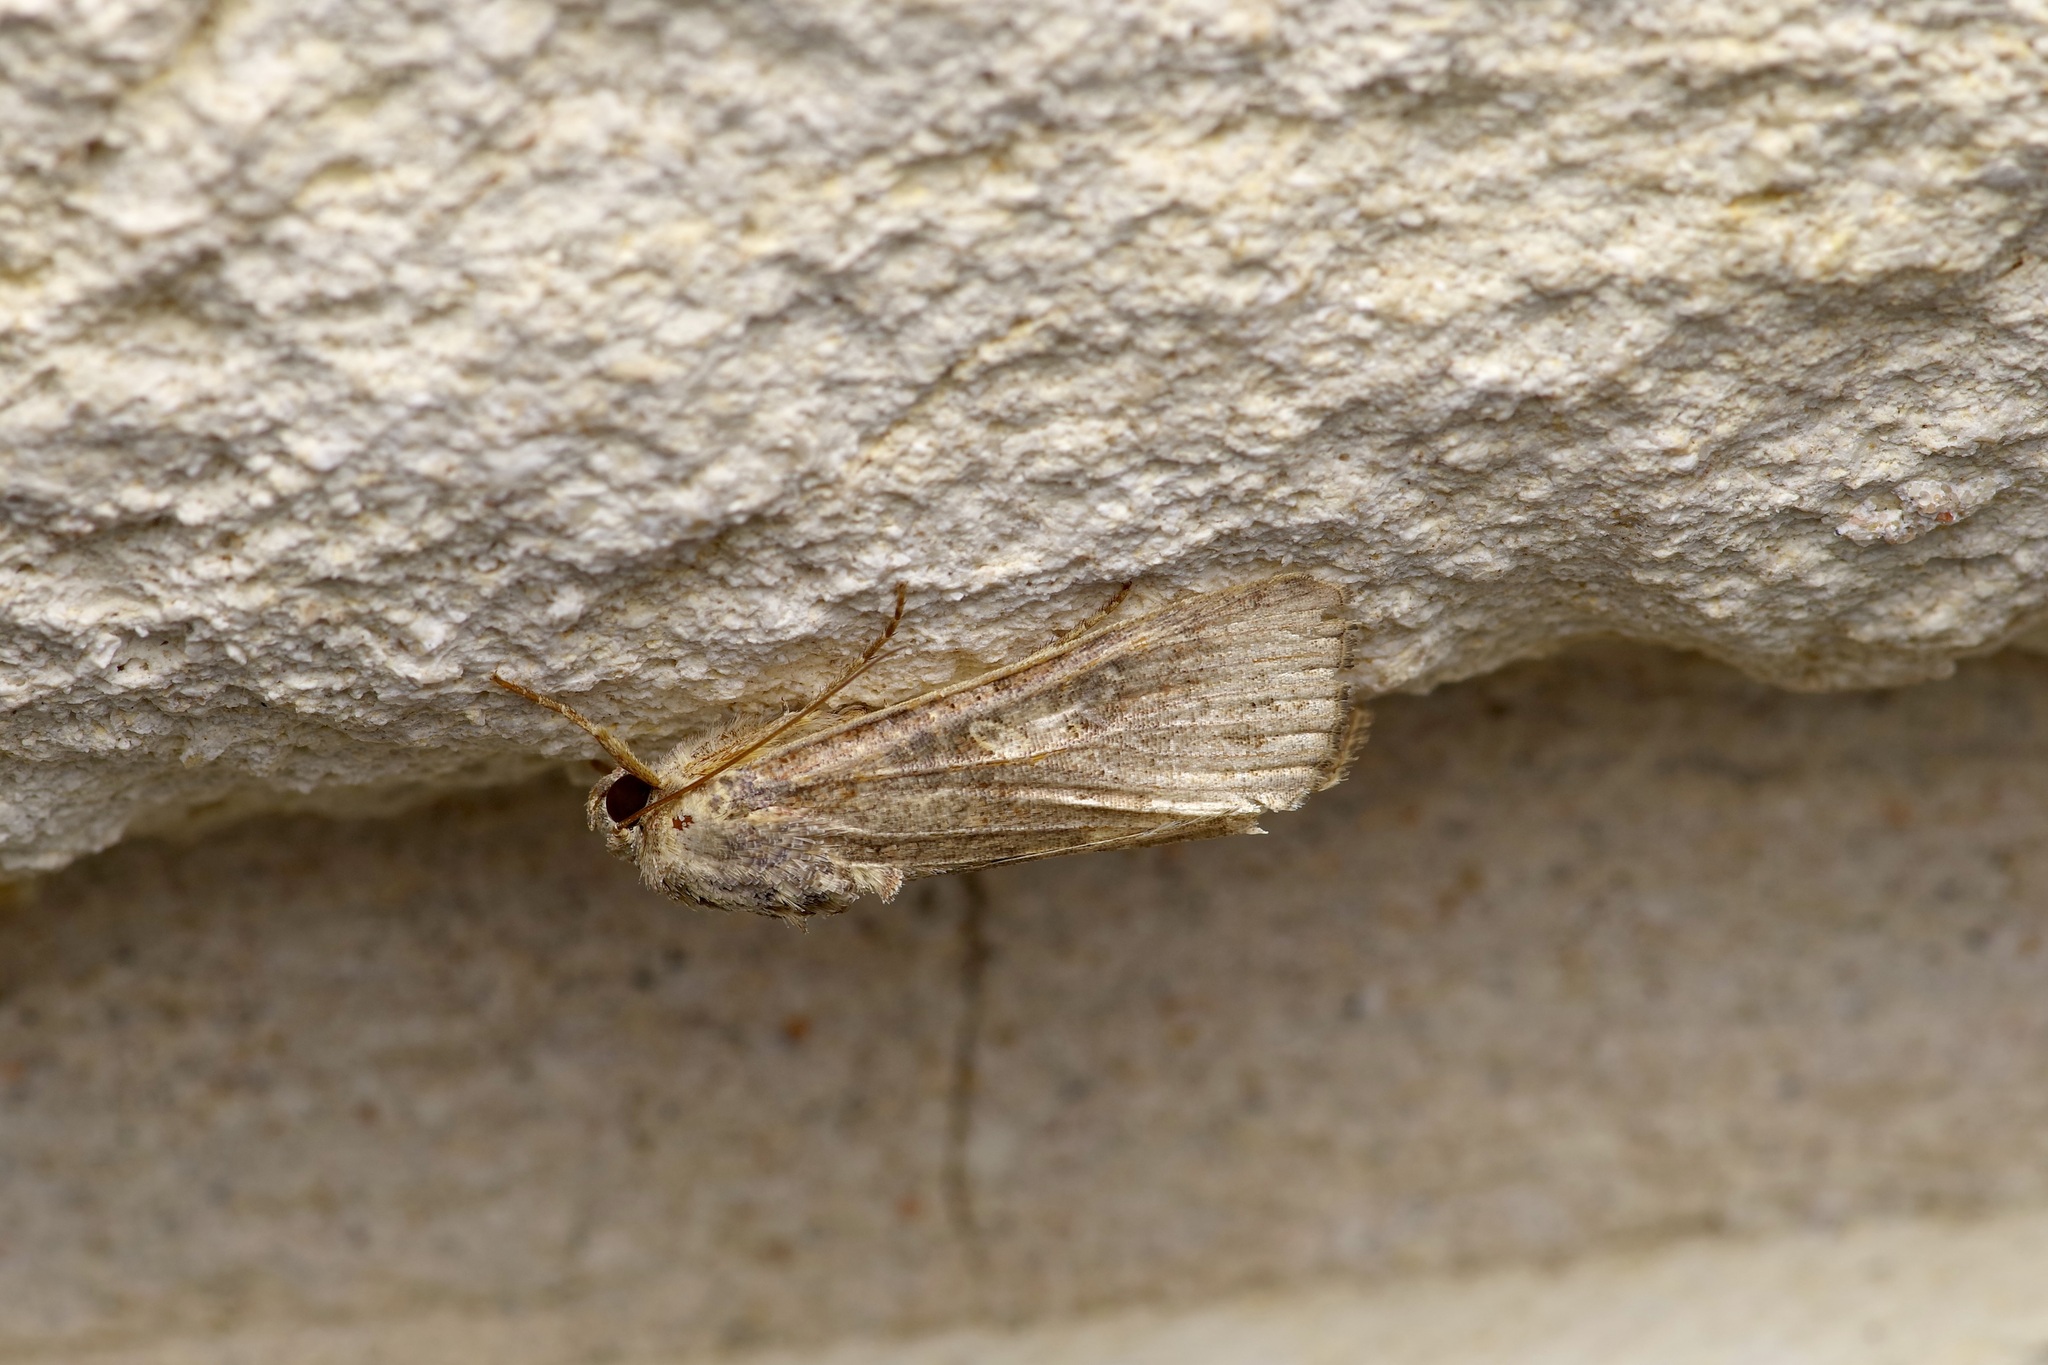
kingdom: Animalia
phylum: Arthropoda
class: Insecta
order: Lepidoptera
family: Noctuidae
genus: Spodoptera
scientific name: Spodoptera frugiperda
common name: Fall armyworm
